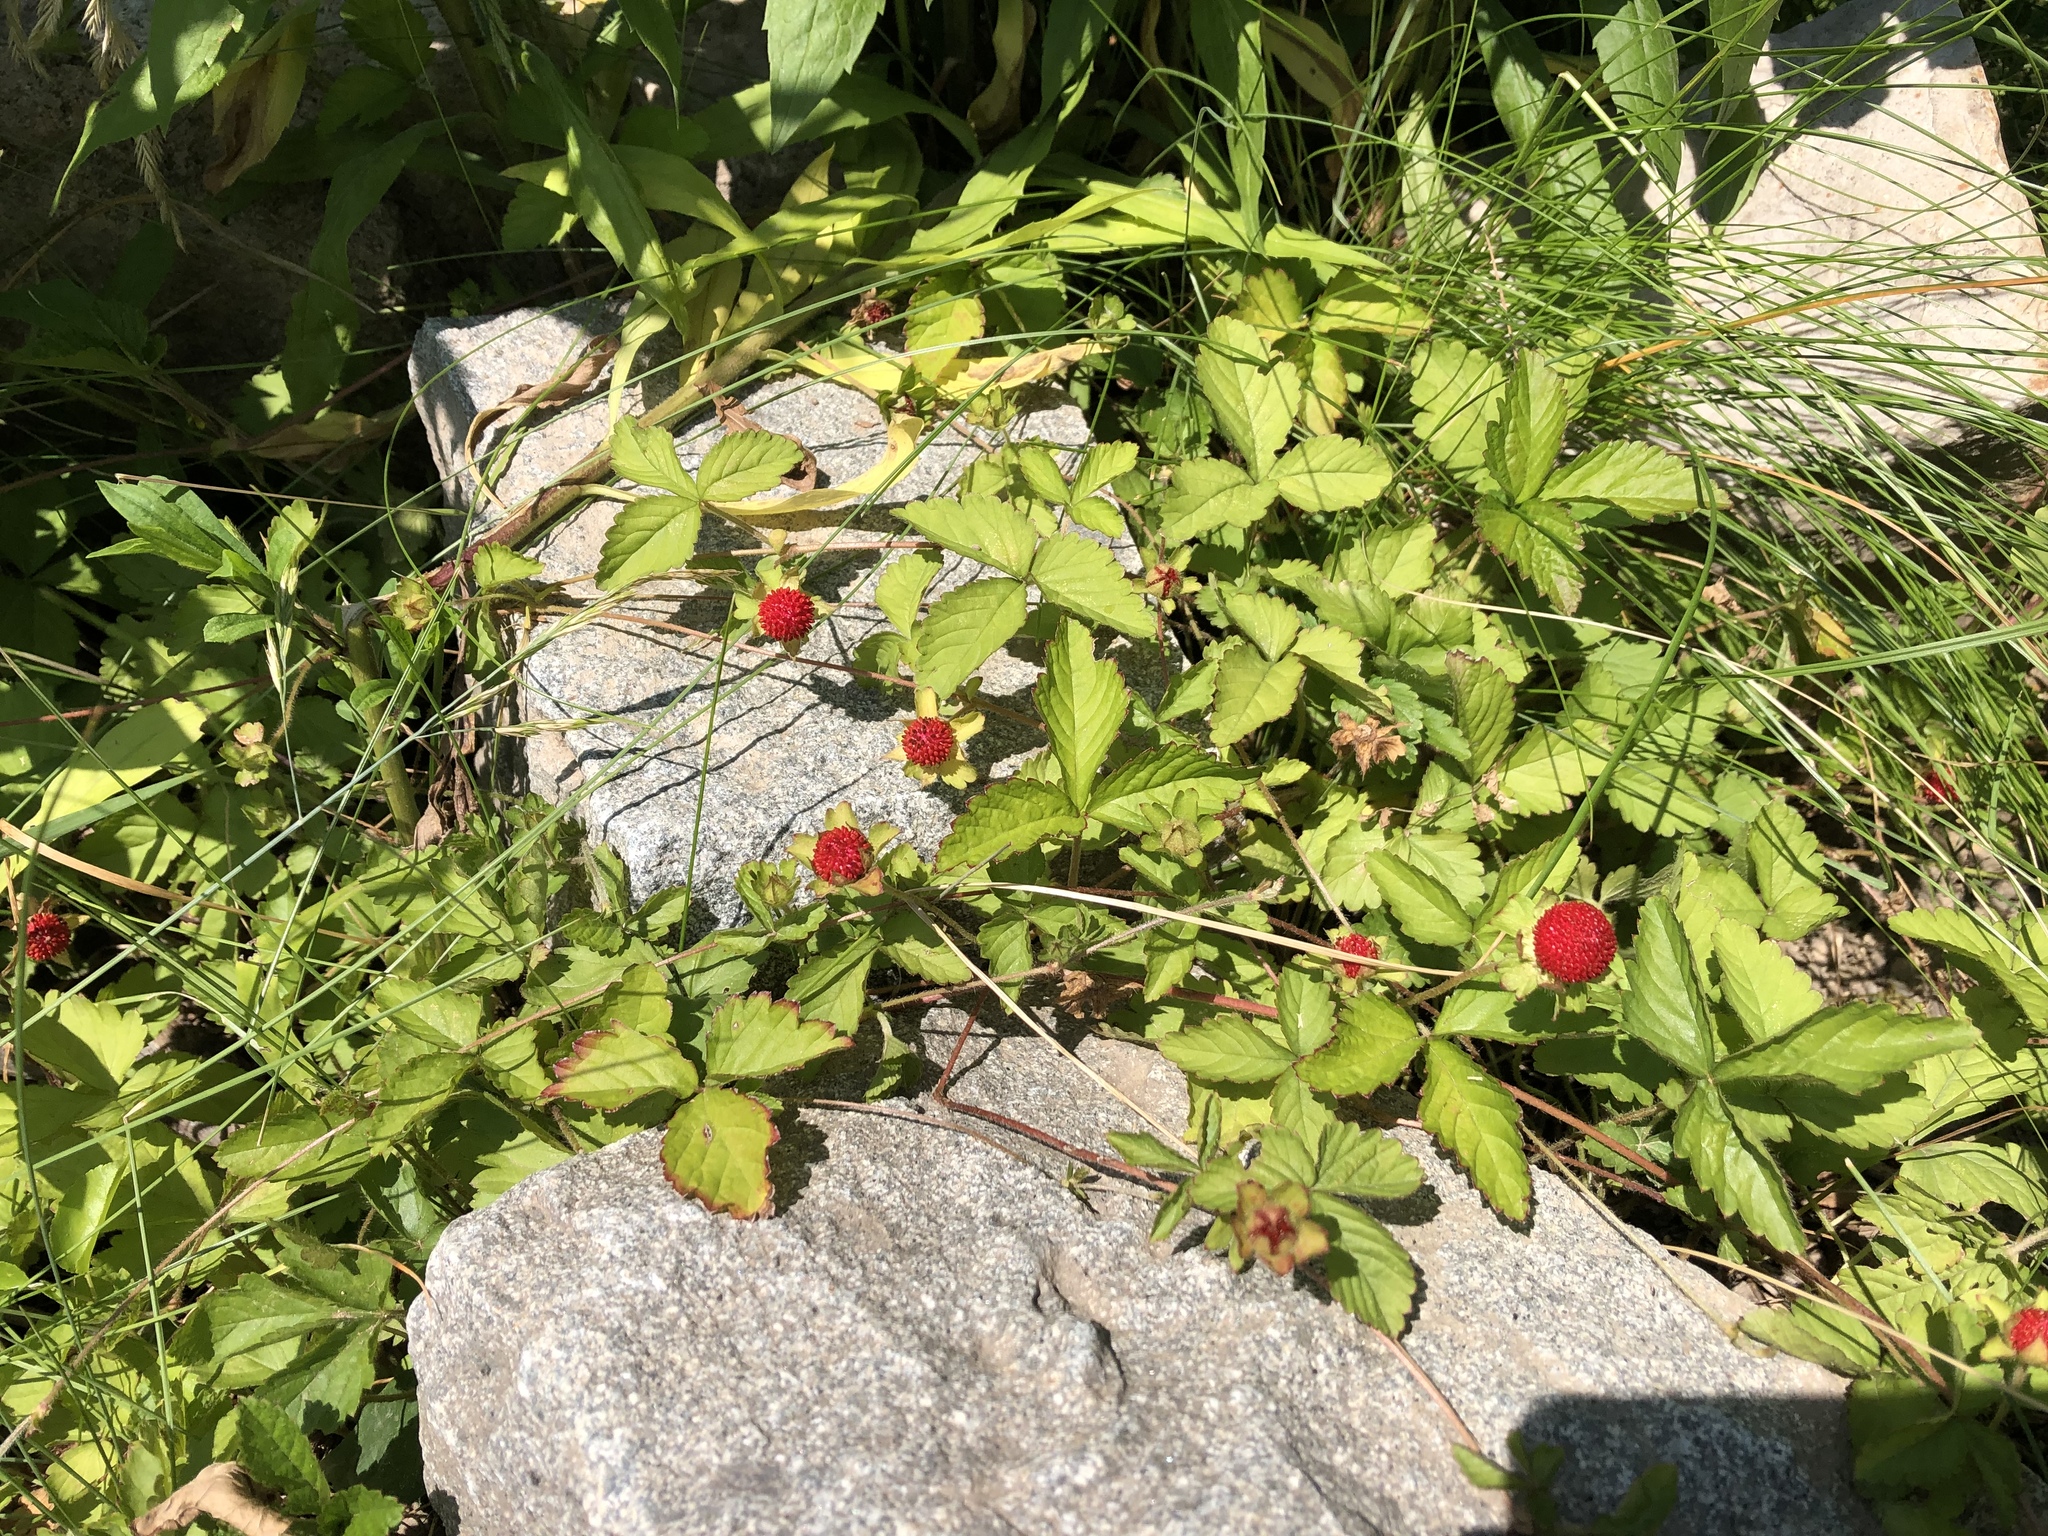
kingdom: Plantae
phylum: Tracheophyta
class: Magnoliopsida
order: Rosales
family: Rosaceae
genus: Potentilla
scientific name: Potentilla indica
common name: Yellow-flowered strawberry
